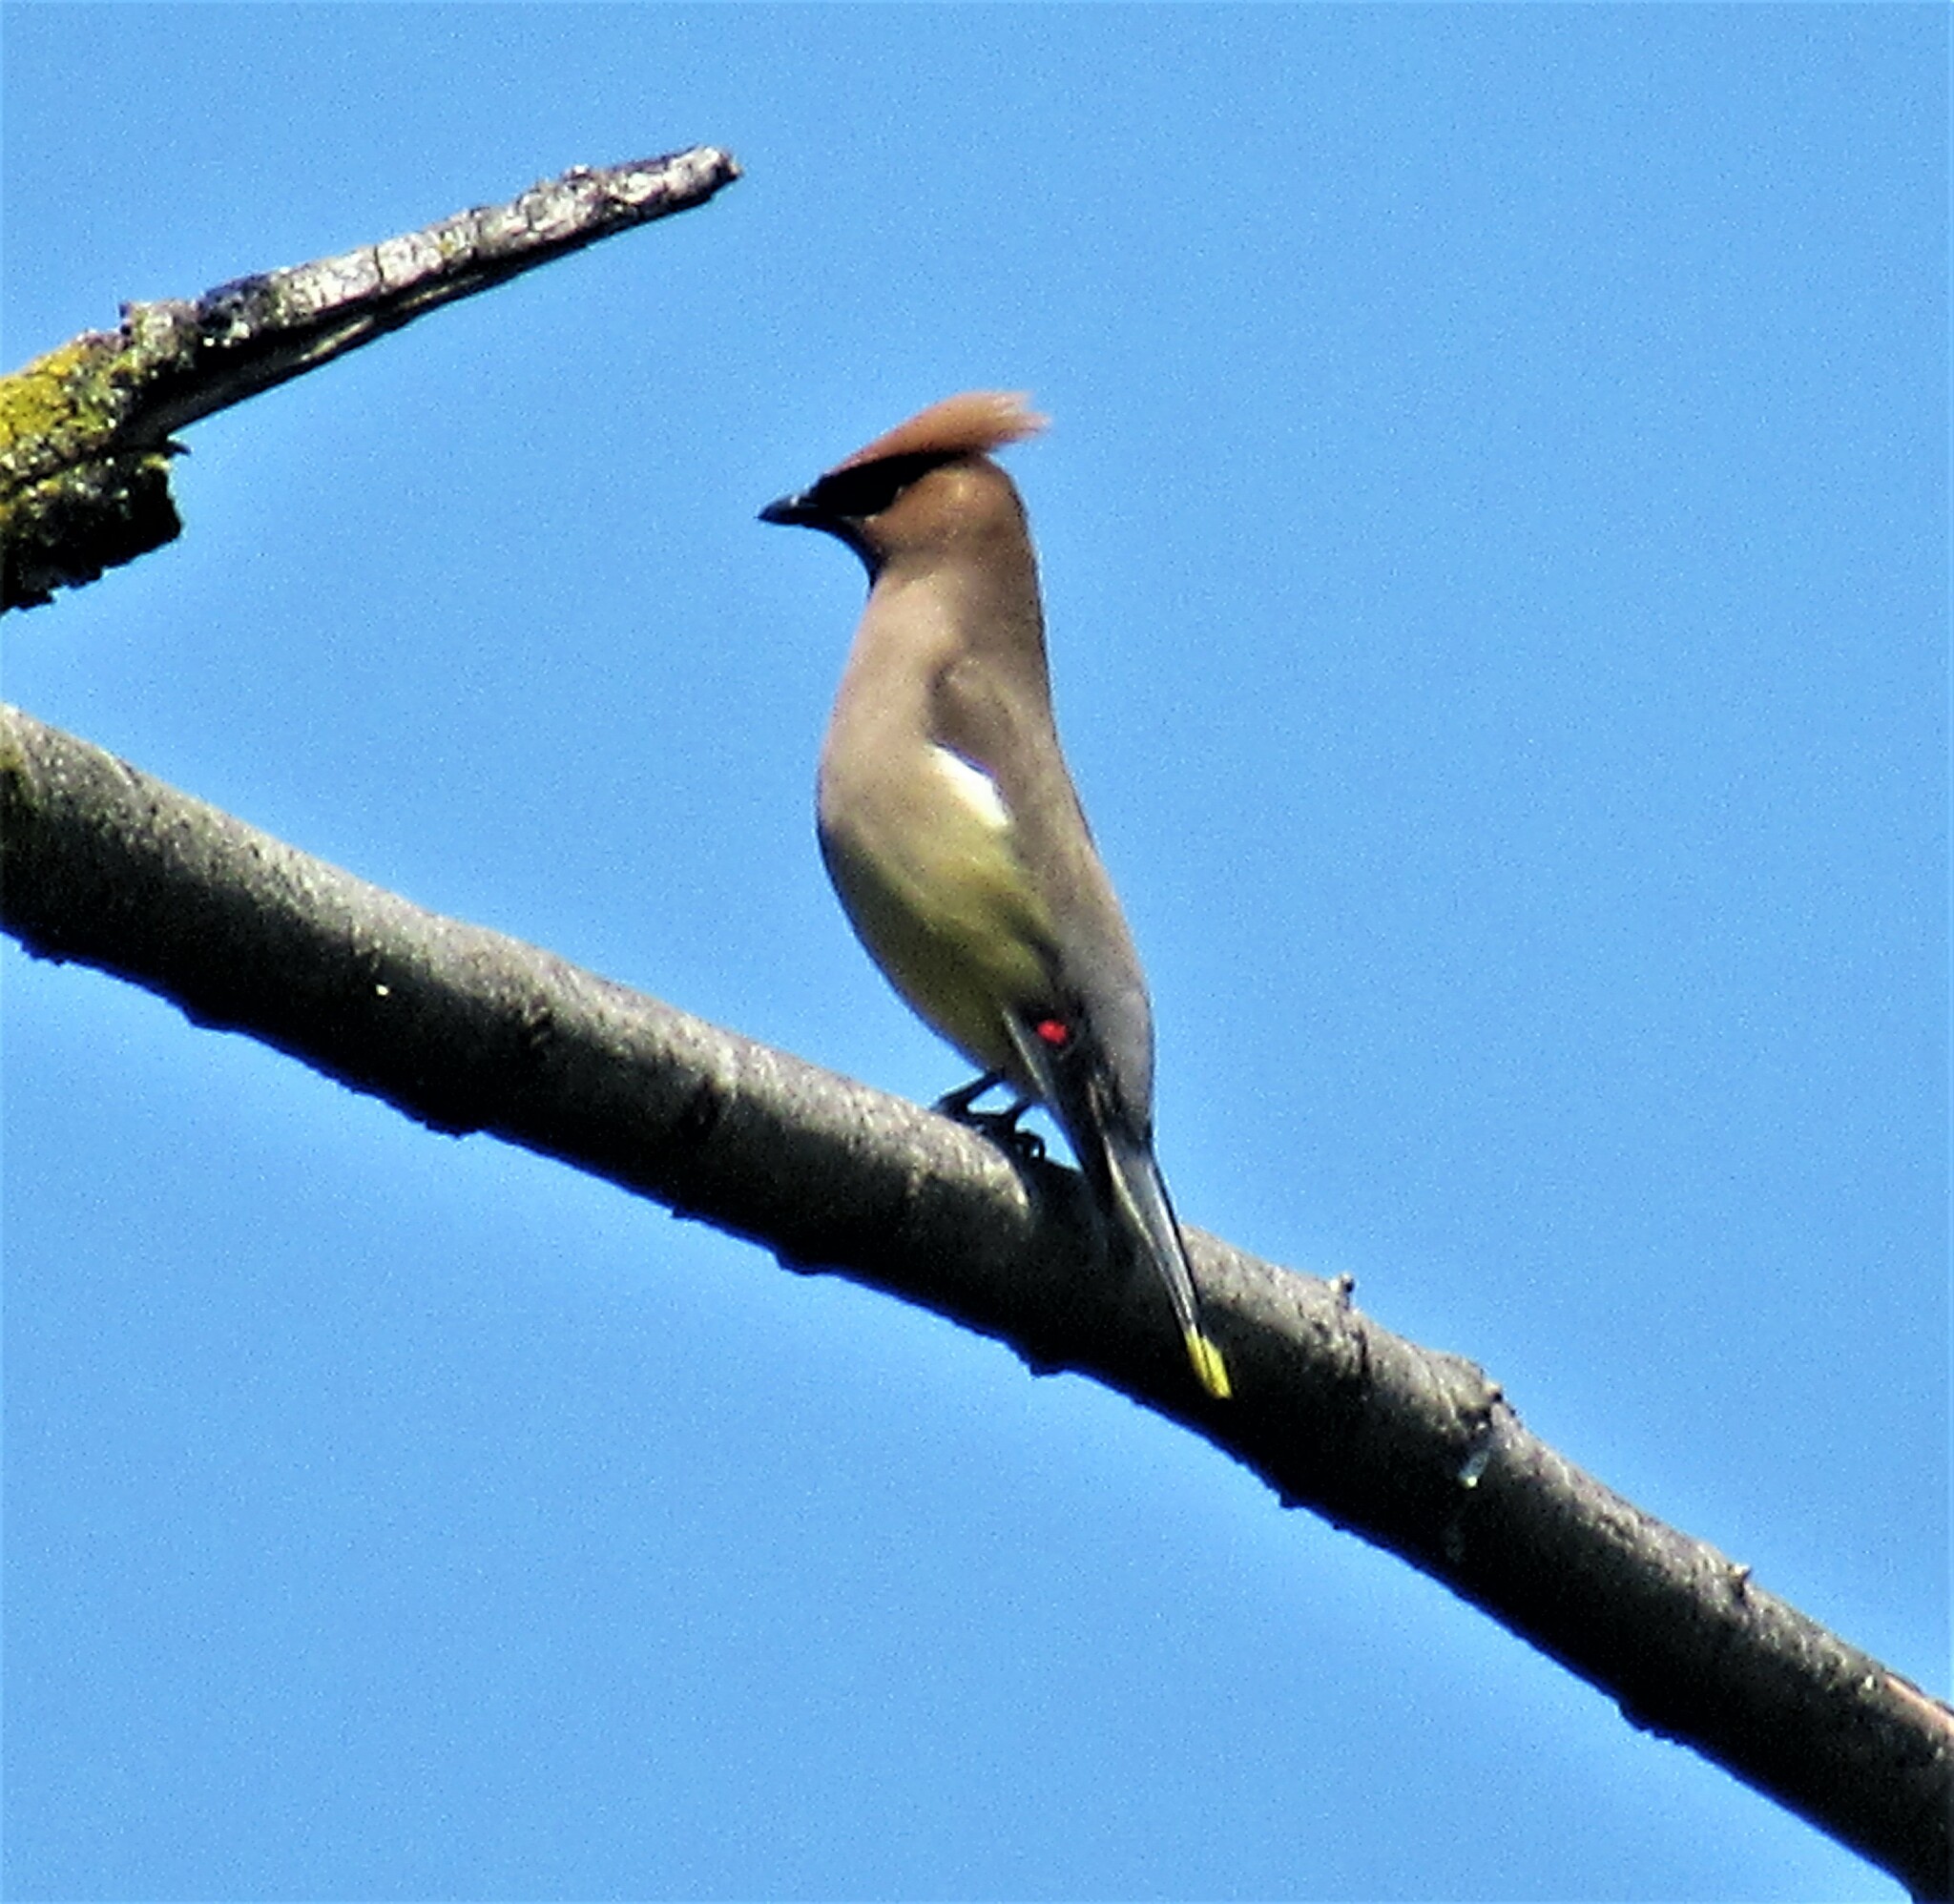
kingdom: Animalia
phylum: Chordata
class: Aves
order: Passeriformes
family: Bombycillidae
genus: Bombycilla
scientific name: Bombycilla cedrorum
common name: Cedar waxwing
